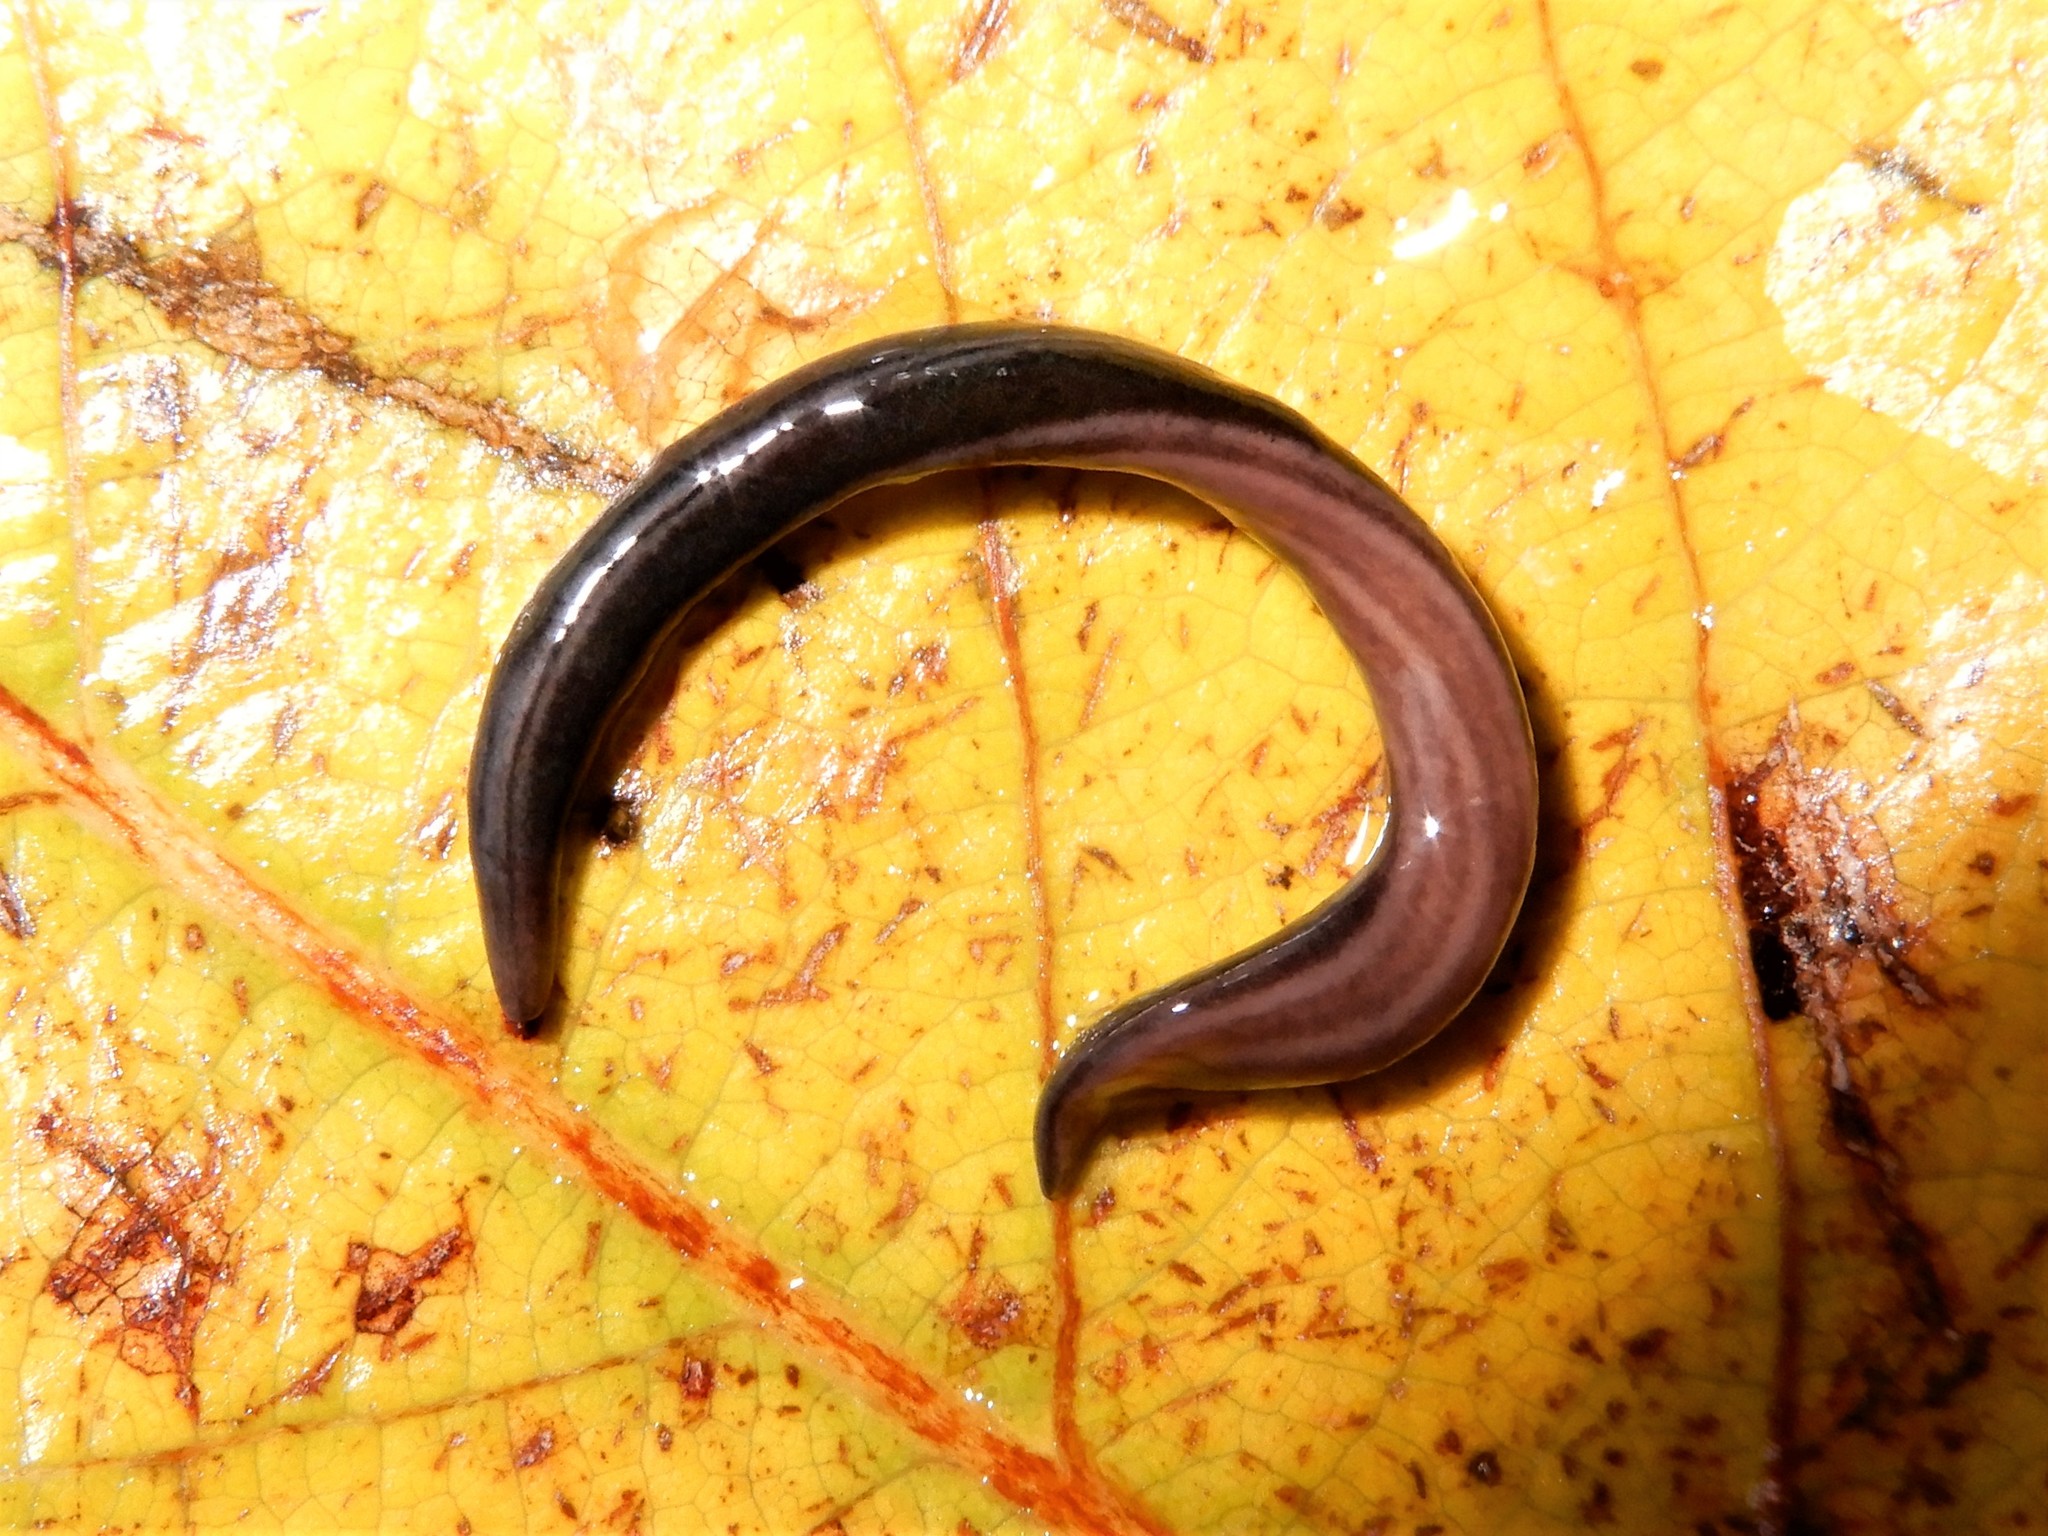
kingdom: Animalia
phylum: Platyhelminthes
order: Tricladida
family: Geoplanidae
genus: Parakontikia
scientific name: Parakontikia ventrolineata
